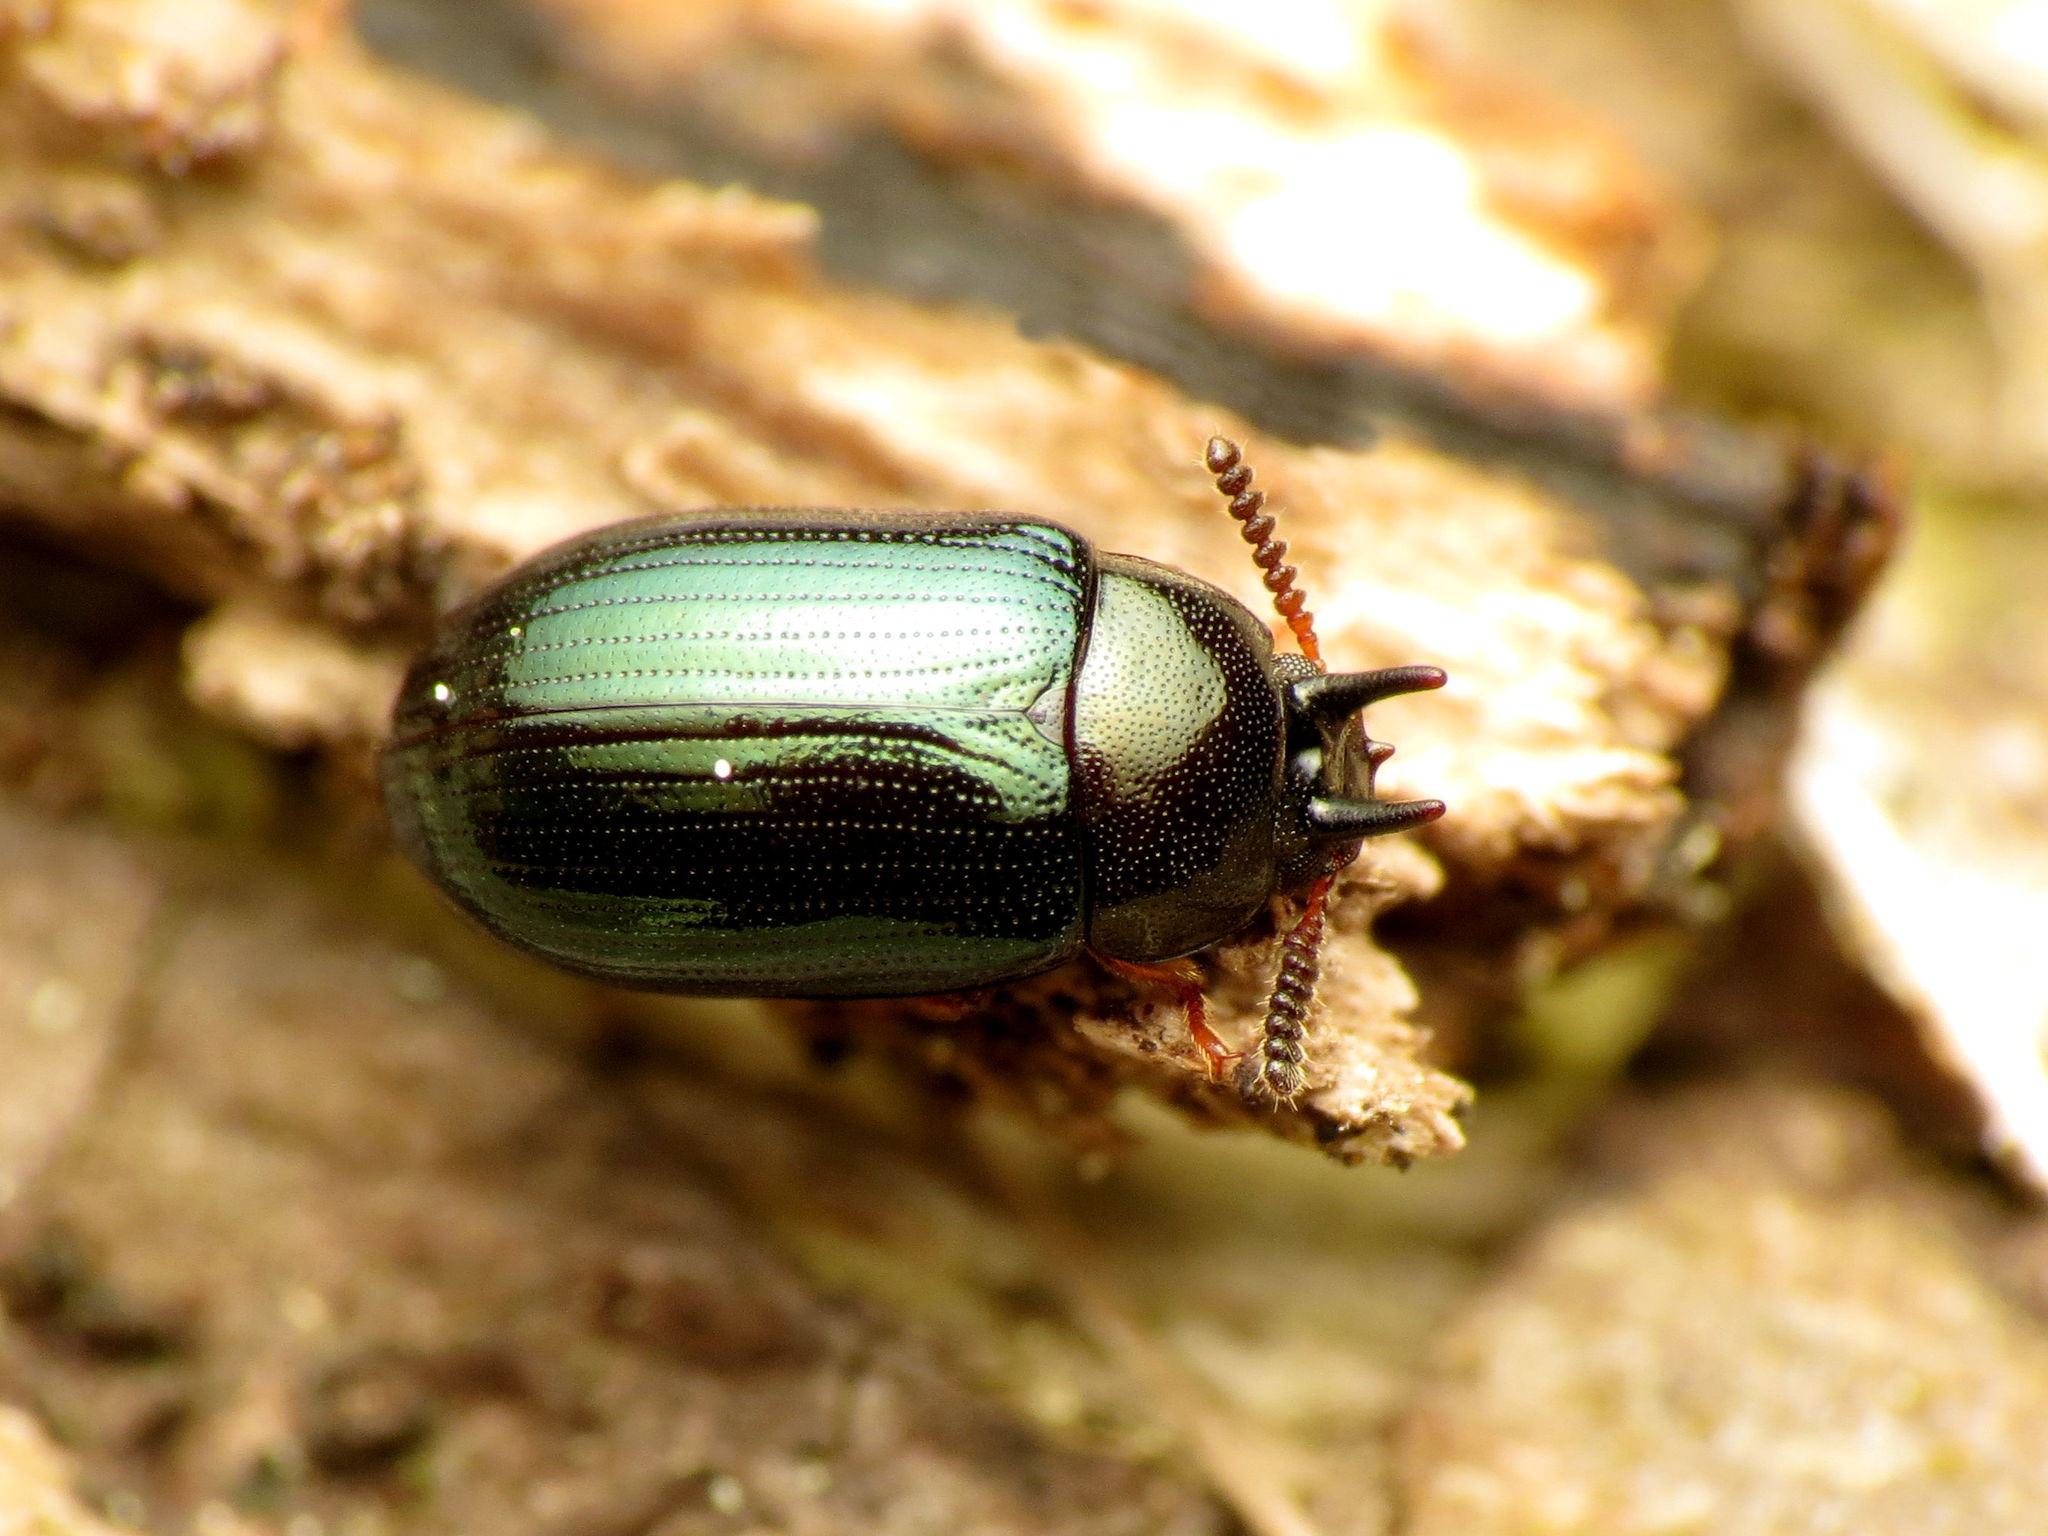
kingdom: Animalia
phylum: Arthropoda
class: Insecta
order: Coleoptera
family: Tenebrionidae
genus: Neomida
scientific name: Neomida bicornis
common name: Two-horned darkling beetle
